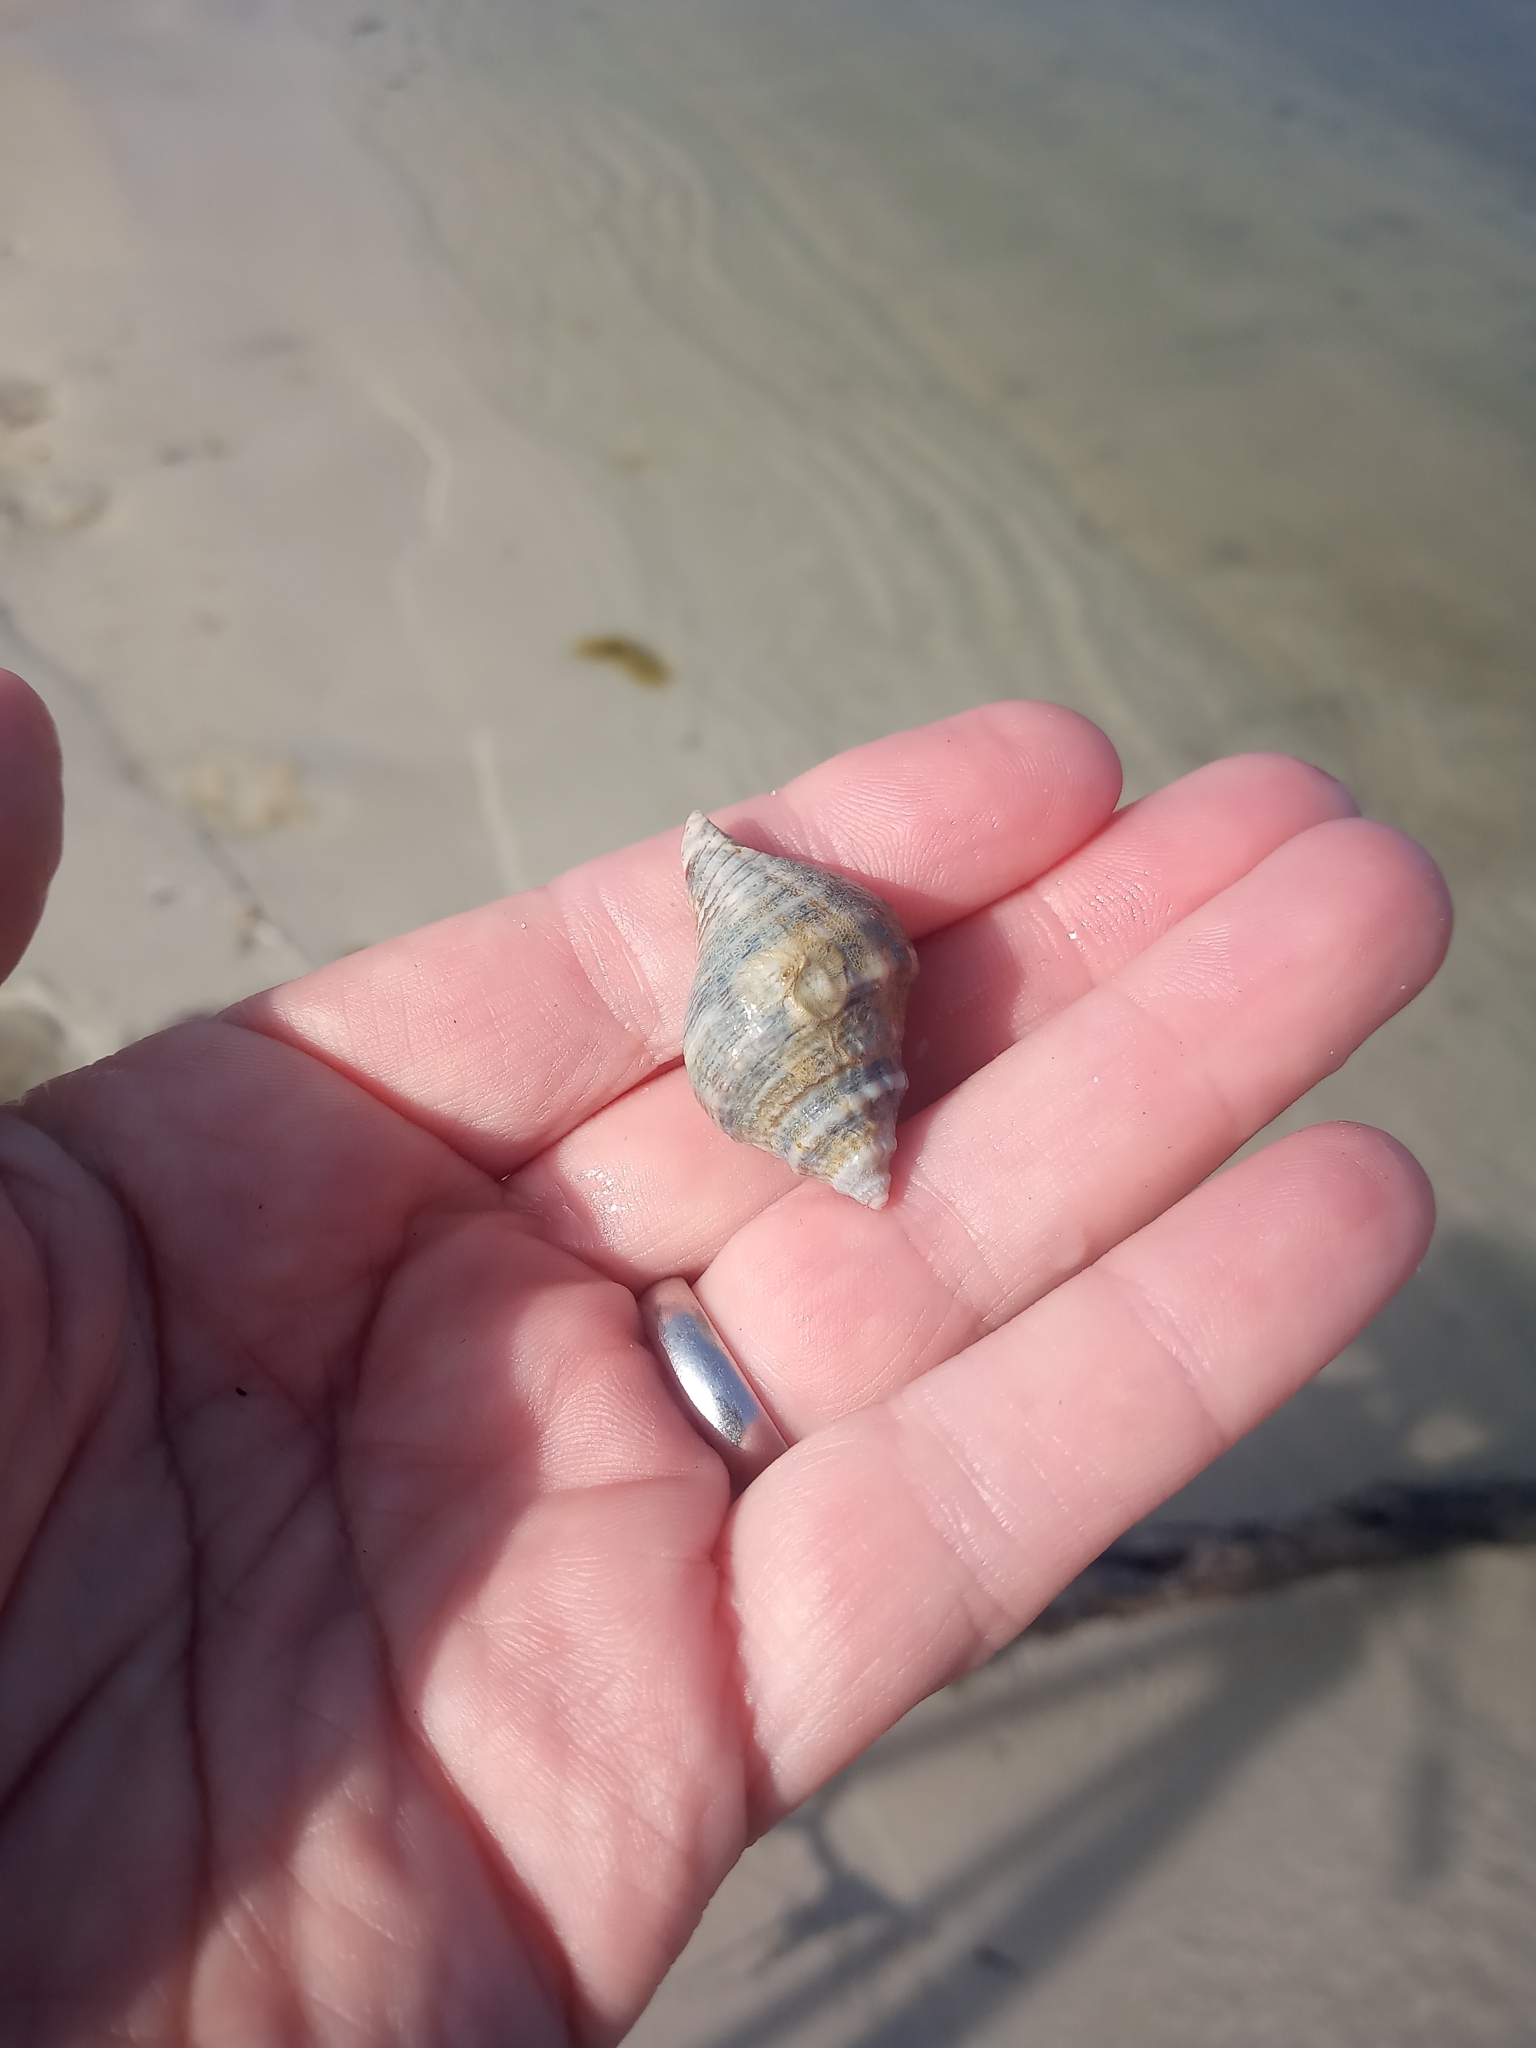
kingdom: Animalia
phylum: Mollusca
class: Gastropoda
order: Neogastropoda
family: Melongenidae
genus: Melongena
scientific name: Melongena corona
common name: American crown conch
